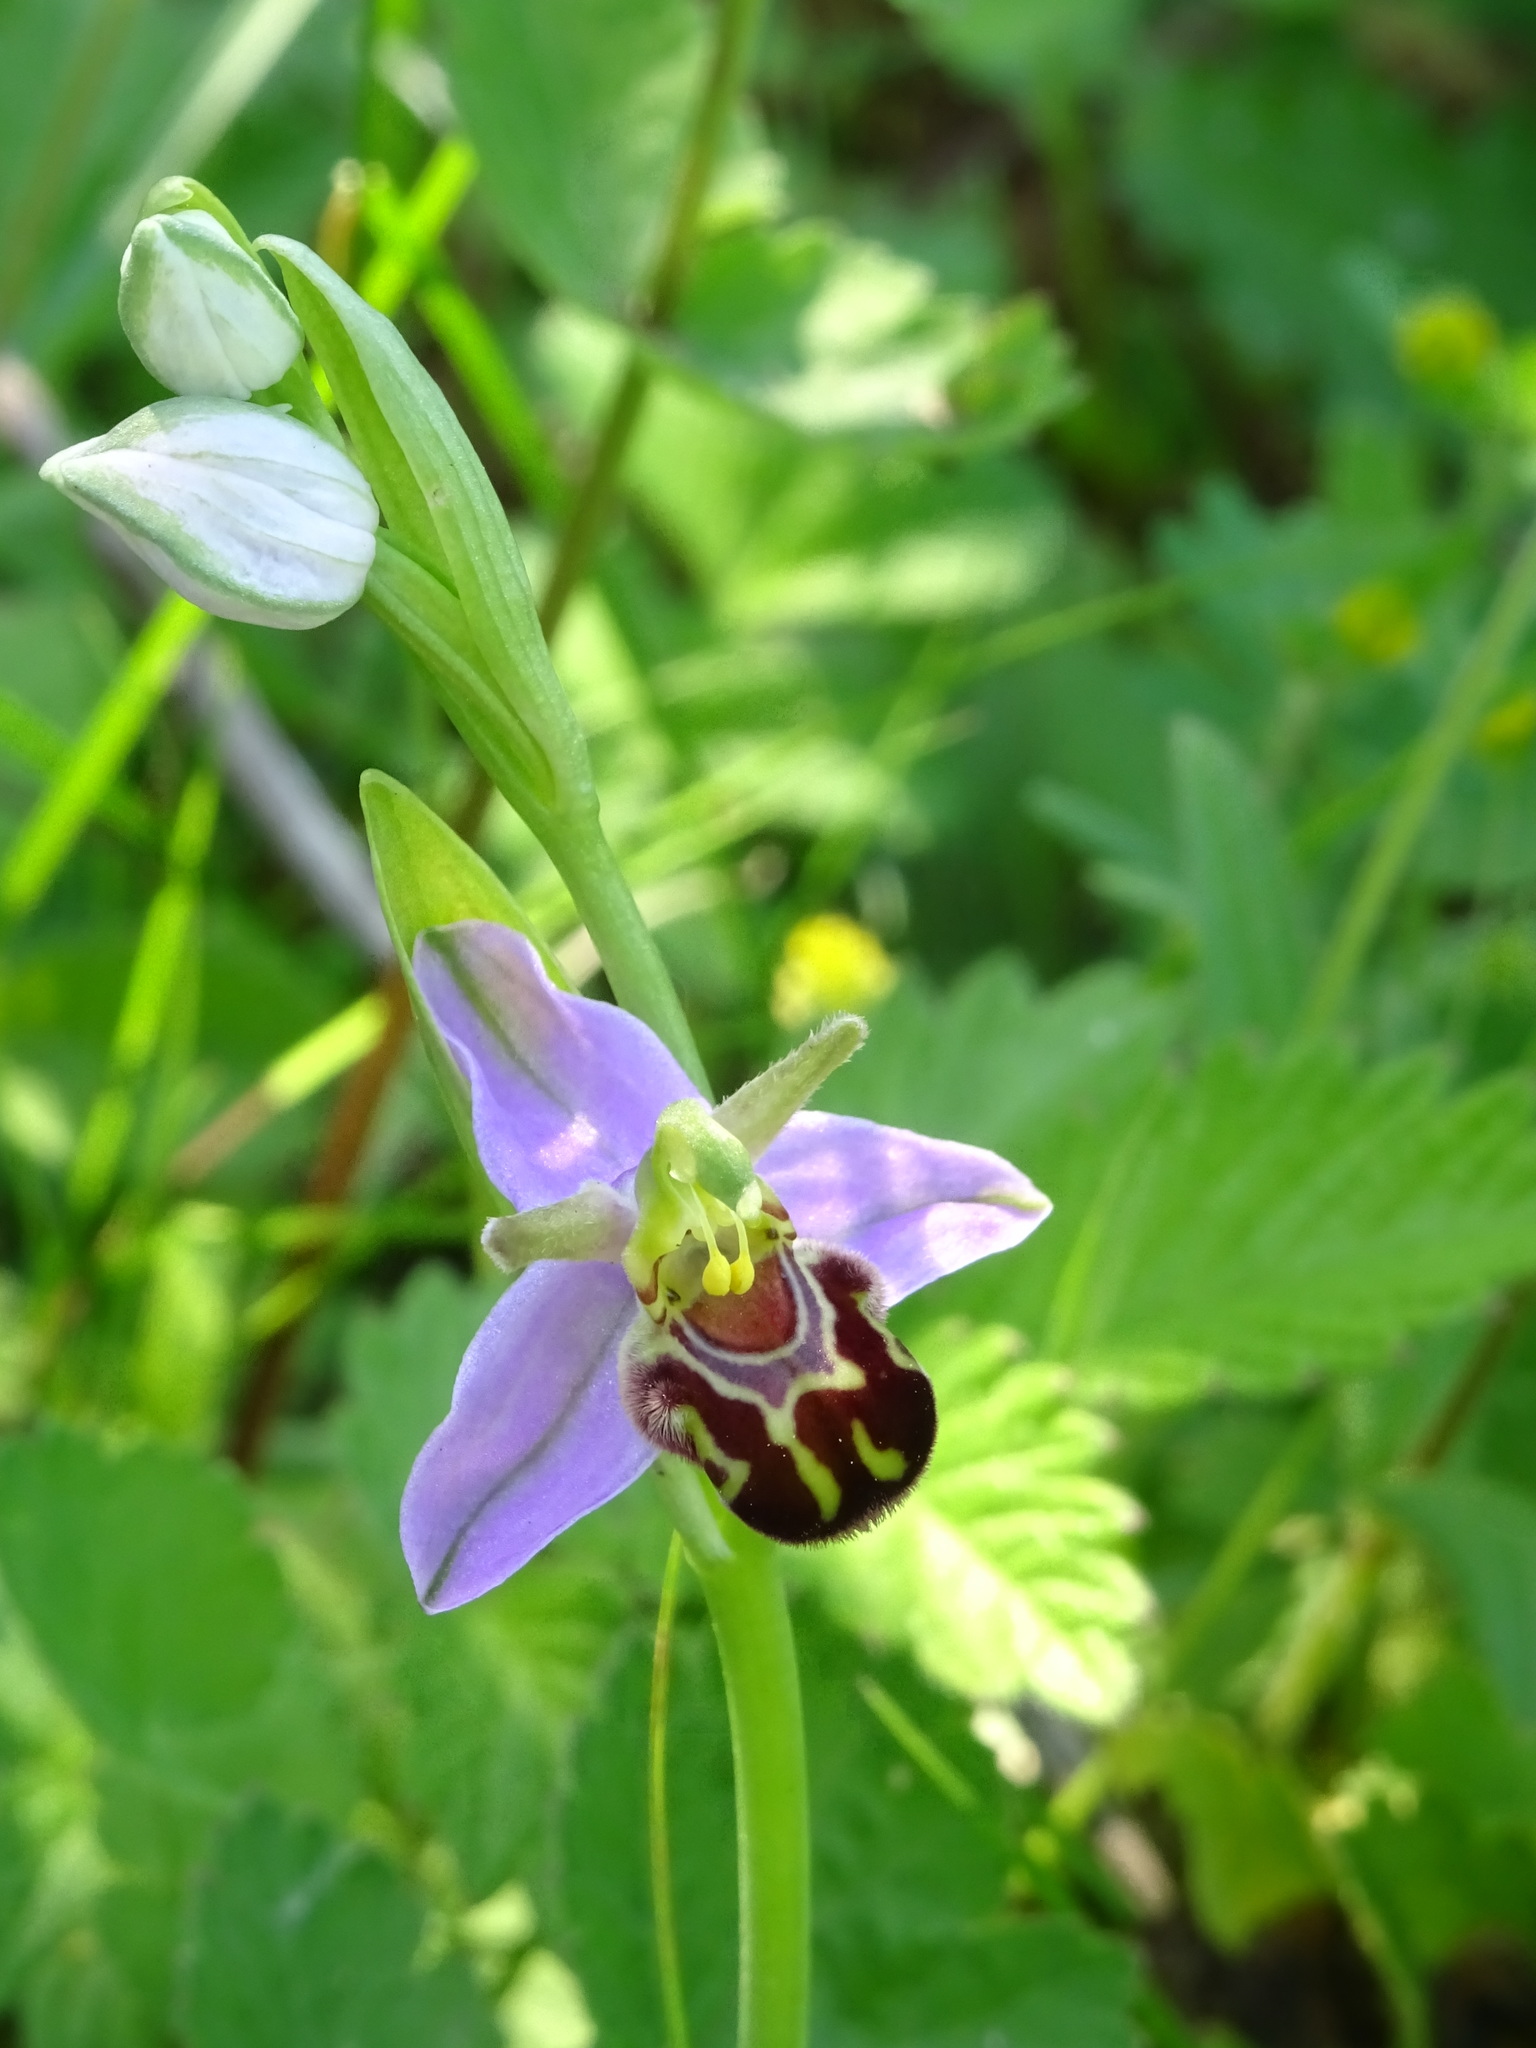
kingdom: Plantae
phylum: Tracheophyta
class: Liliopsida
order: Asparagales
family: Orchidaceae
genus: Ophrys
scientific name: Ophrys apifera
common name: Bee orchid
